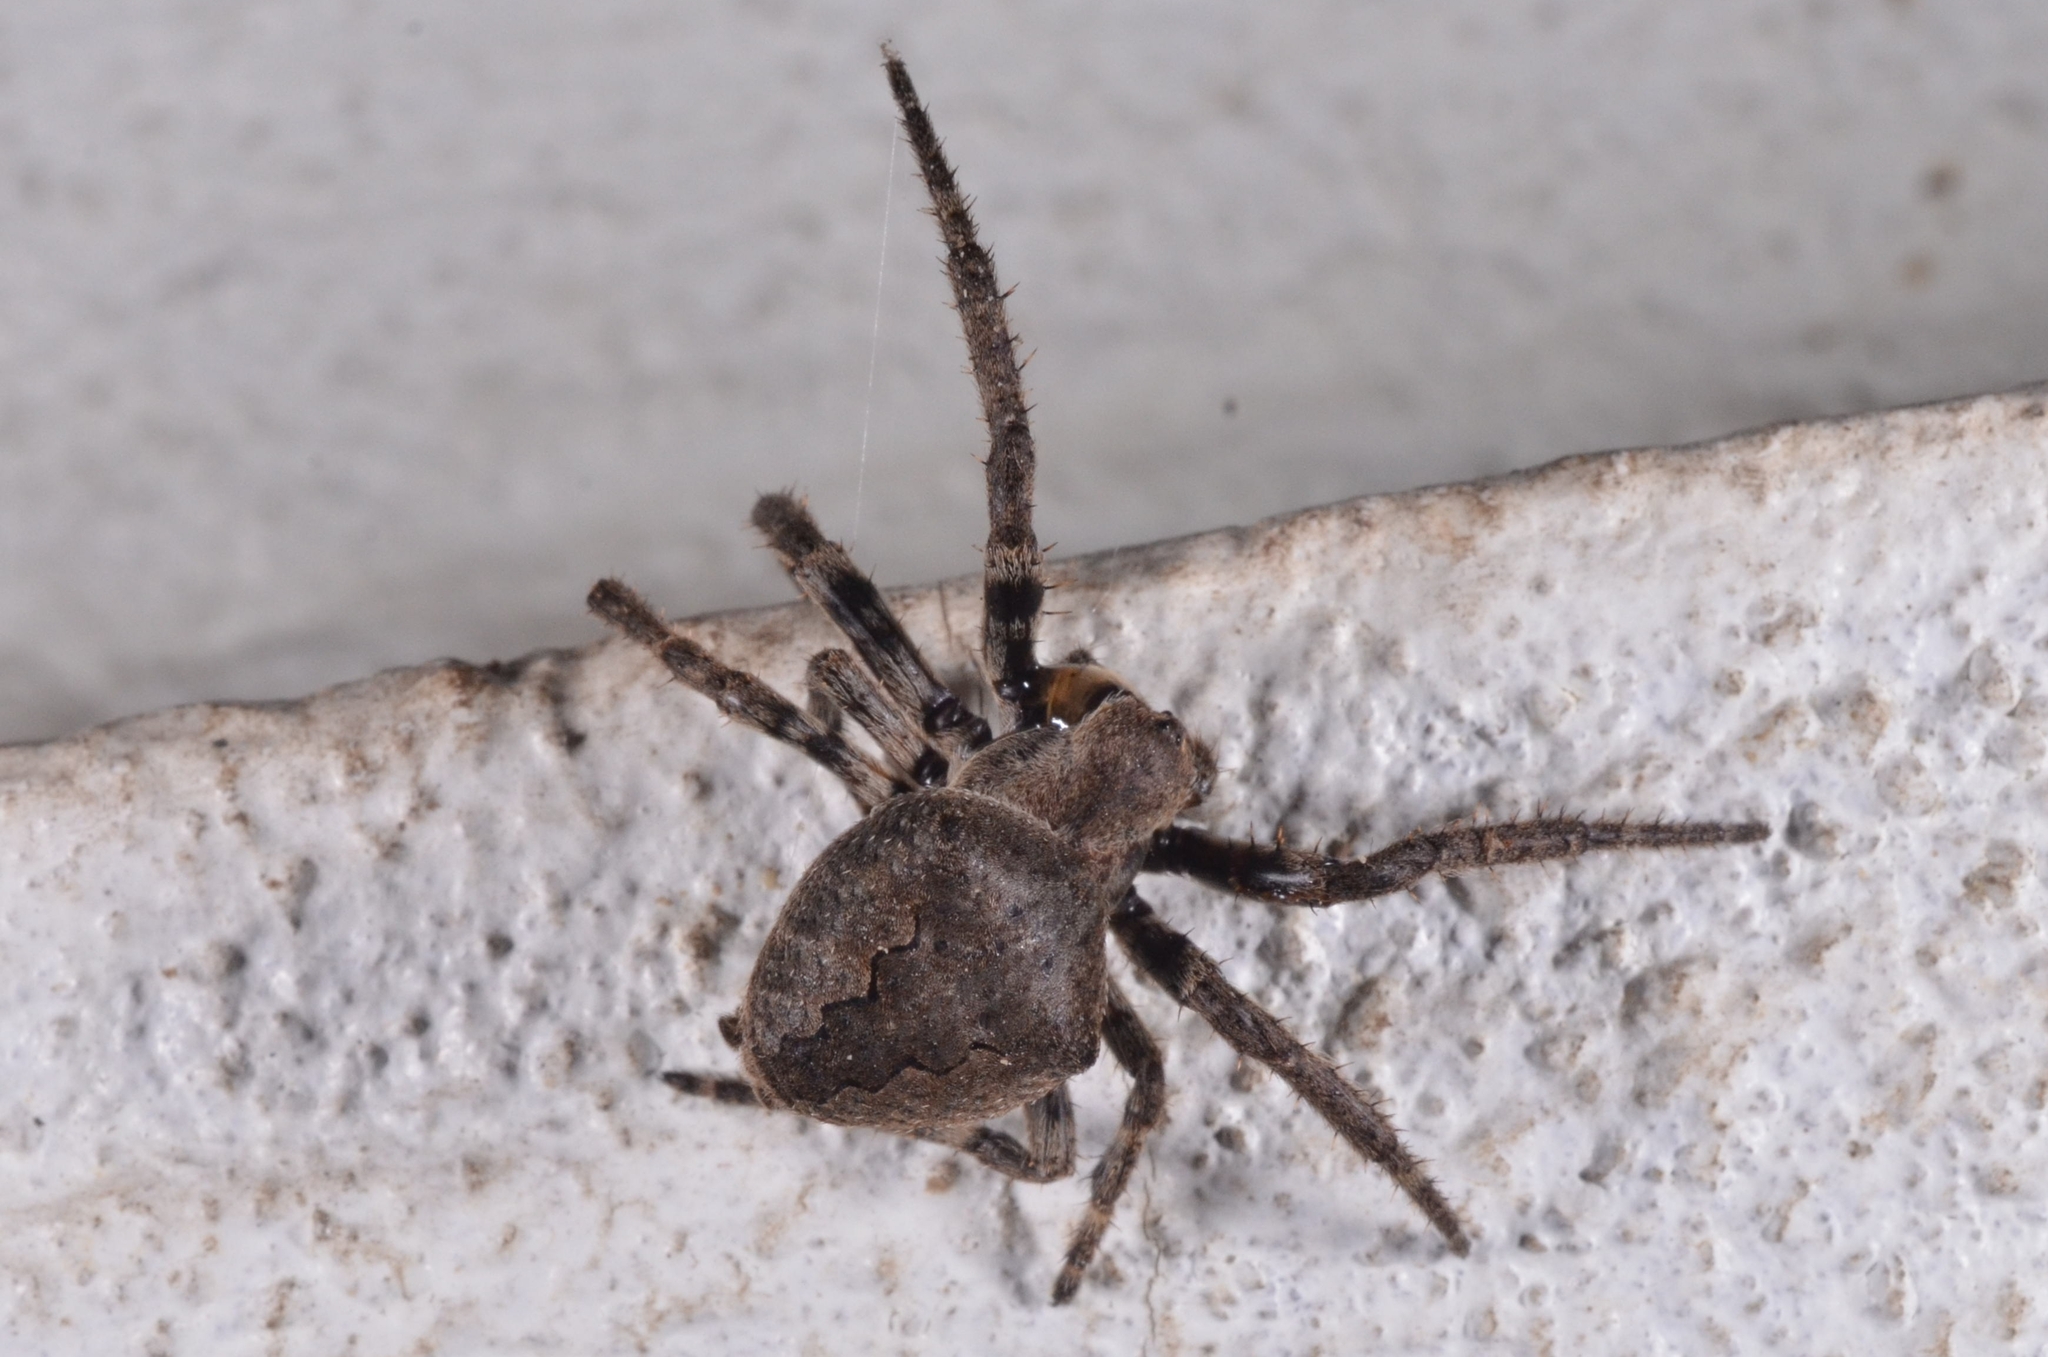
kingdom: Animalia
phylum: Arthropoda
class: Arachnida
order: Araneae
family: Araneidae
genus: Araneus
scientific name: Araneus ventricosus
